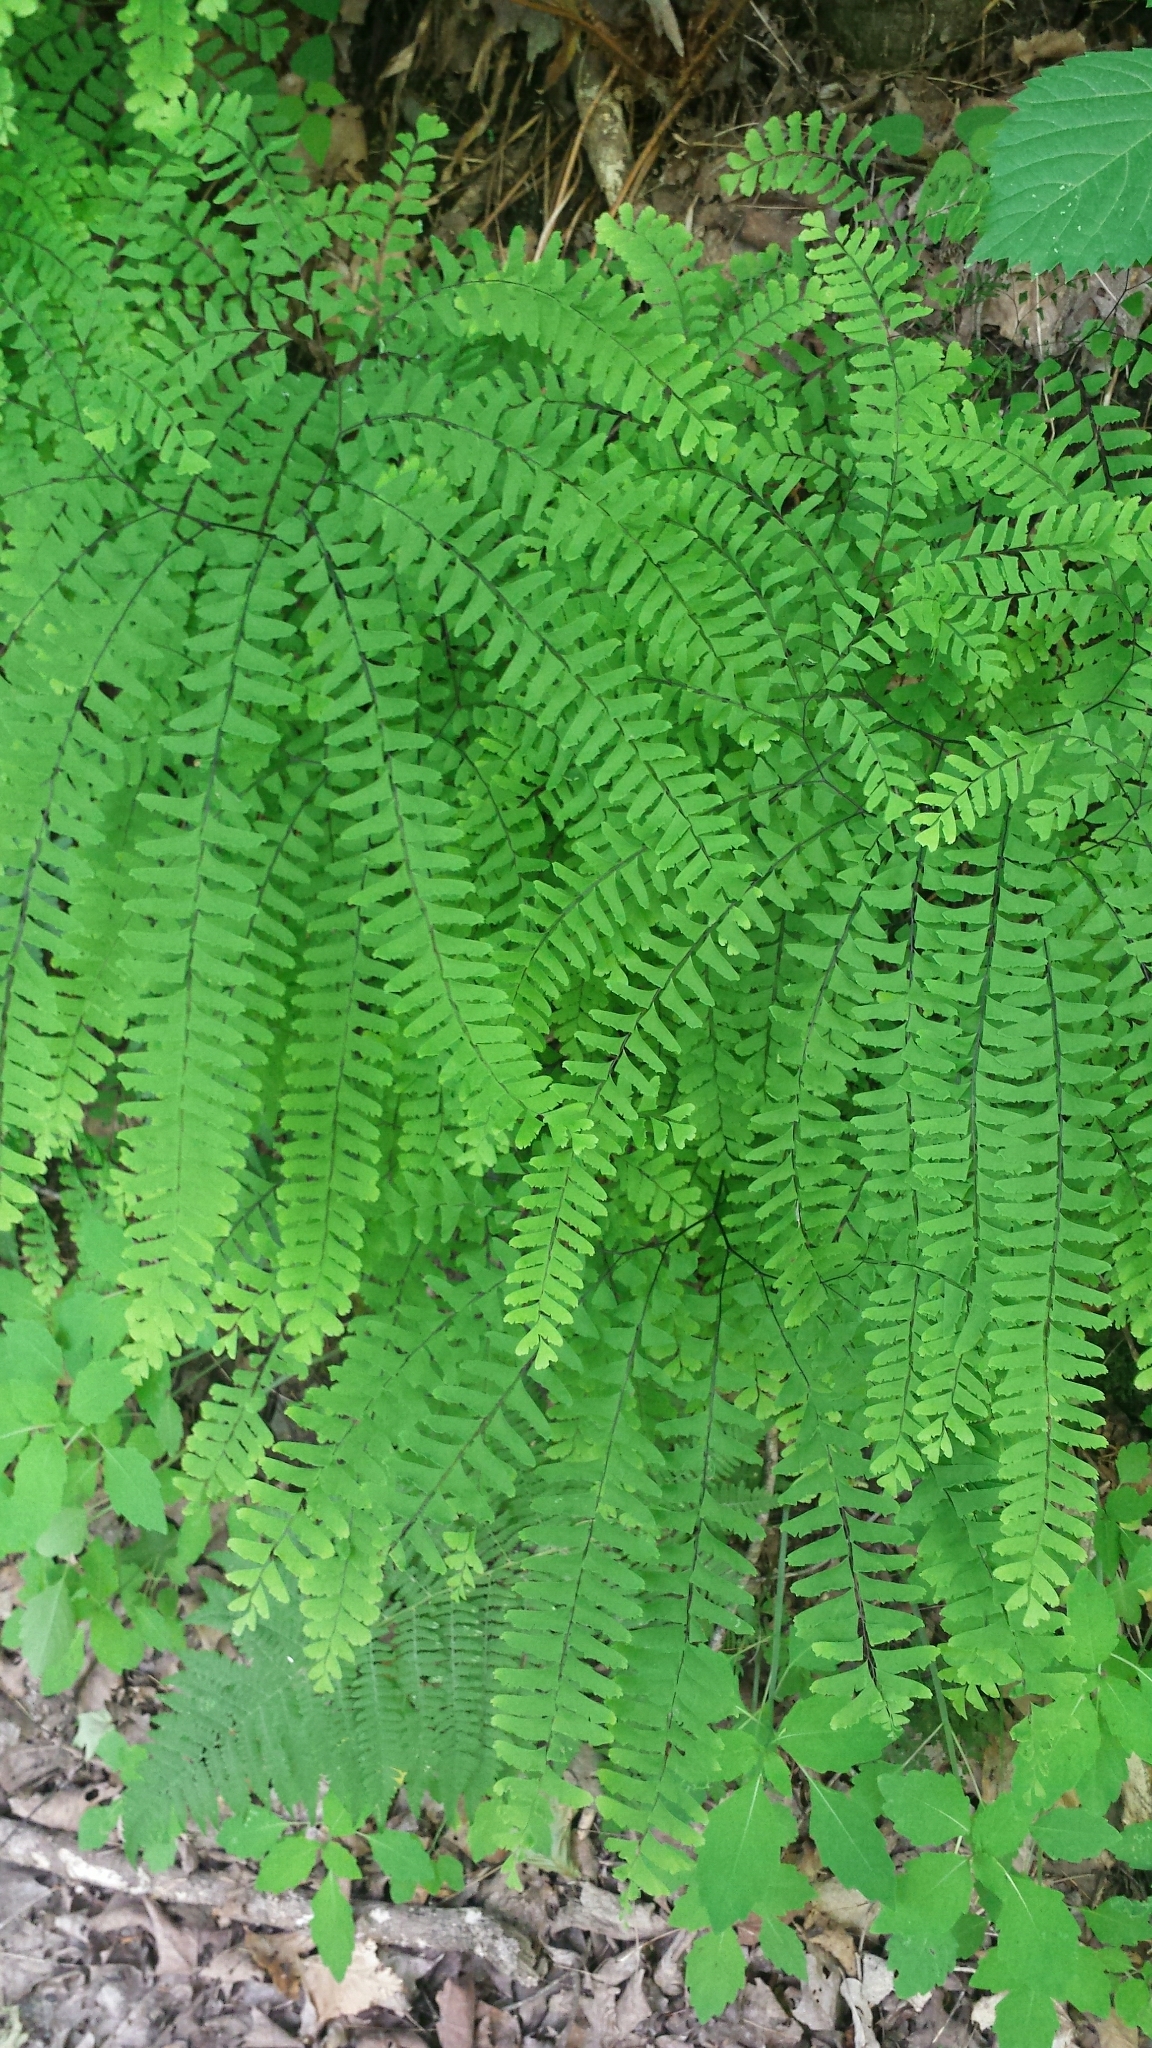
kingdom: Plantae
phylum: Tracheophyta
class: Polypodiopsida
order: Polypodiales
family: Pteridaceae
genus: Adiantum
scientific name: Adiantum pedatum
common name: Five-finger fern
